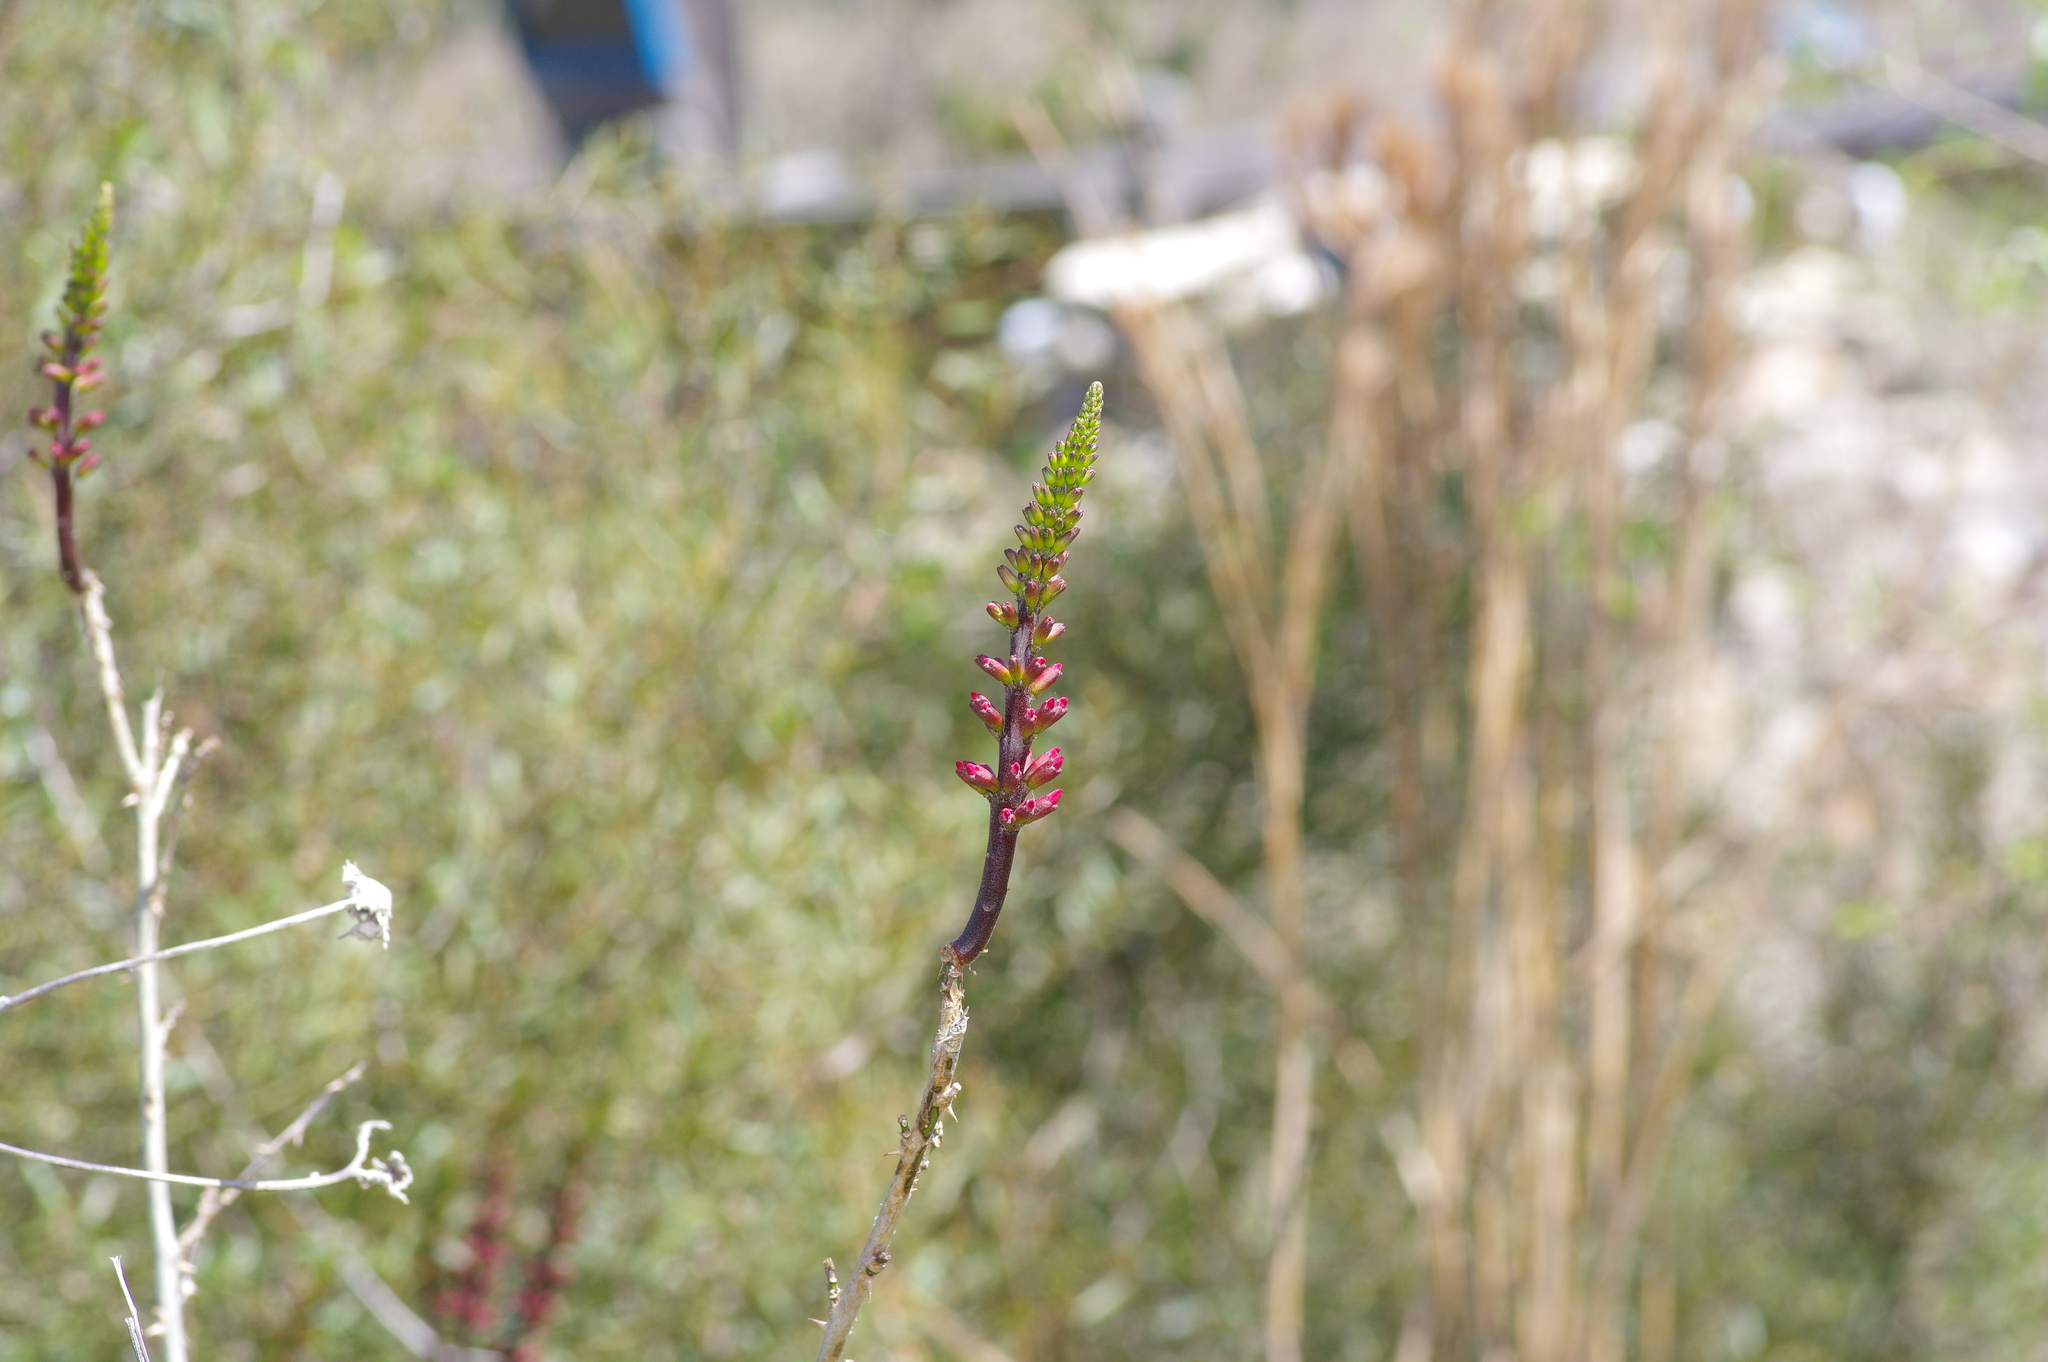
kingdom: Plantae
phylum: Tracheophyta
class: Magnoliopsida
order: Fabales
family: Fabaceae
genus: Erythrina
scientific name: Erythrina herbacea
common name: Coral-bean
